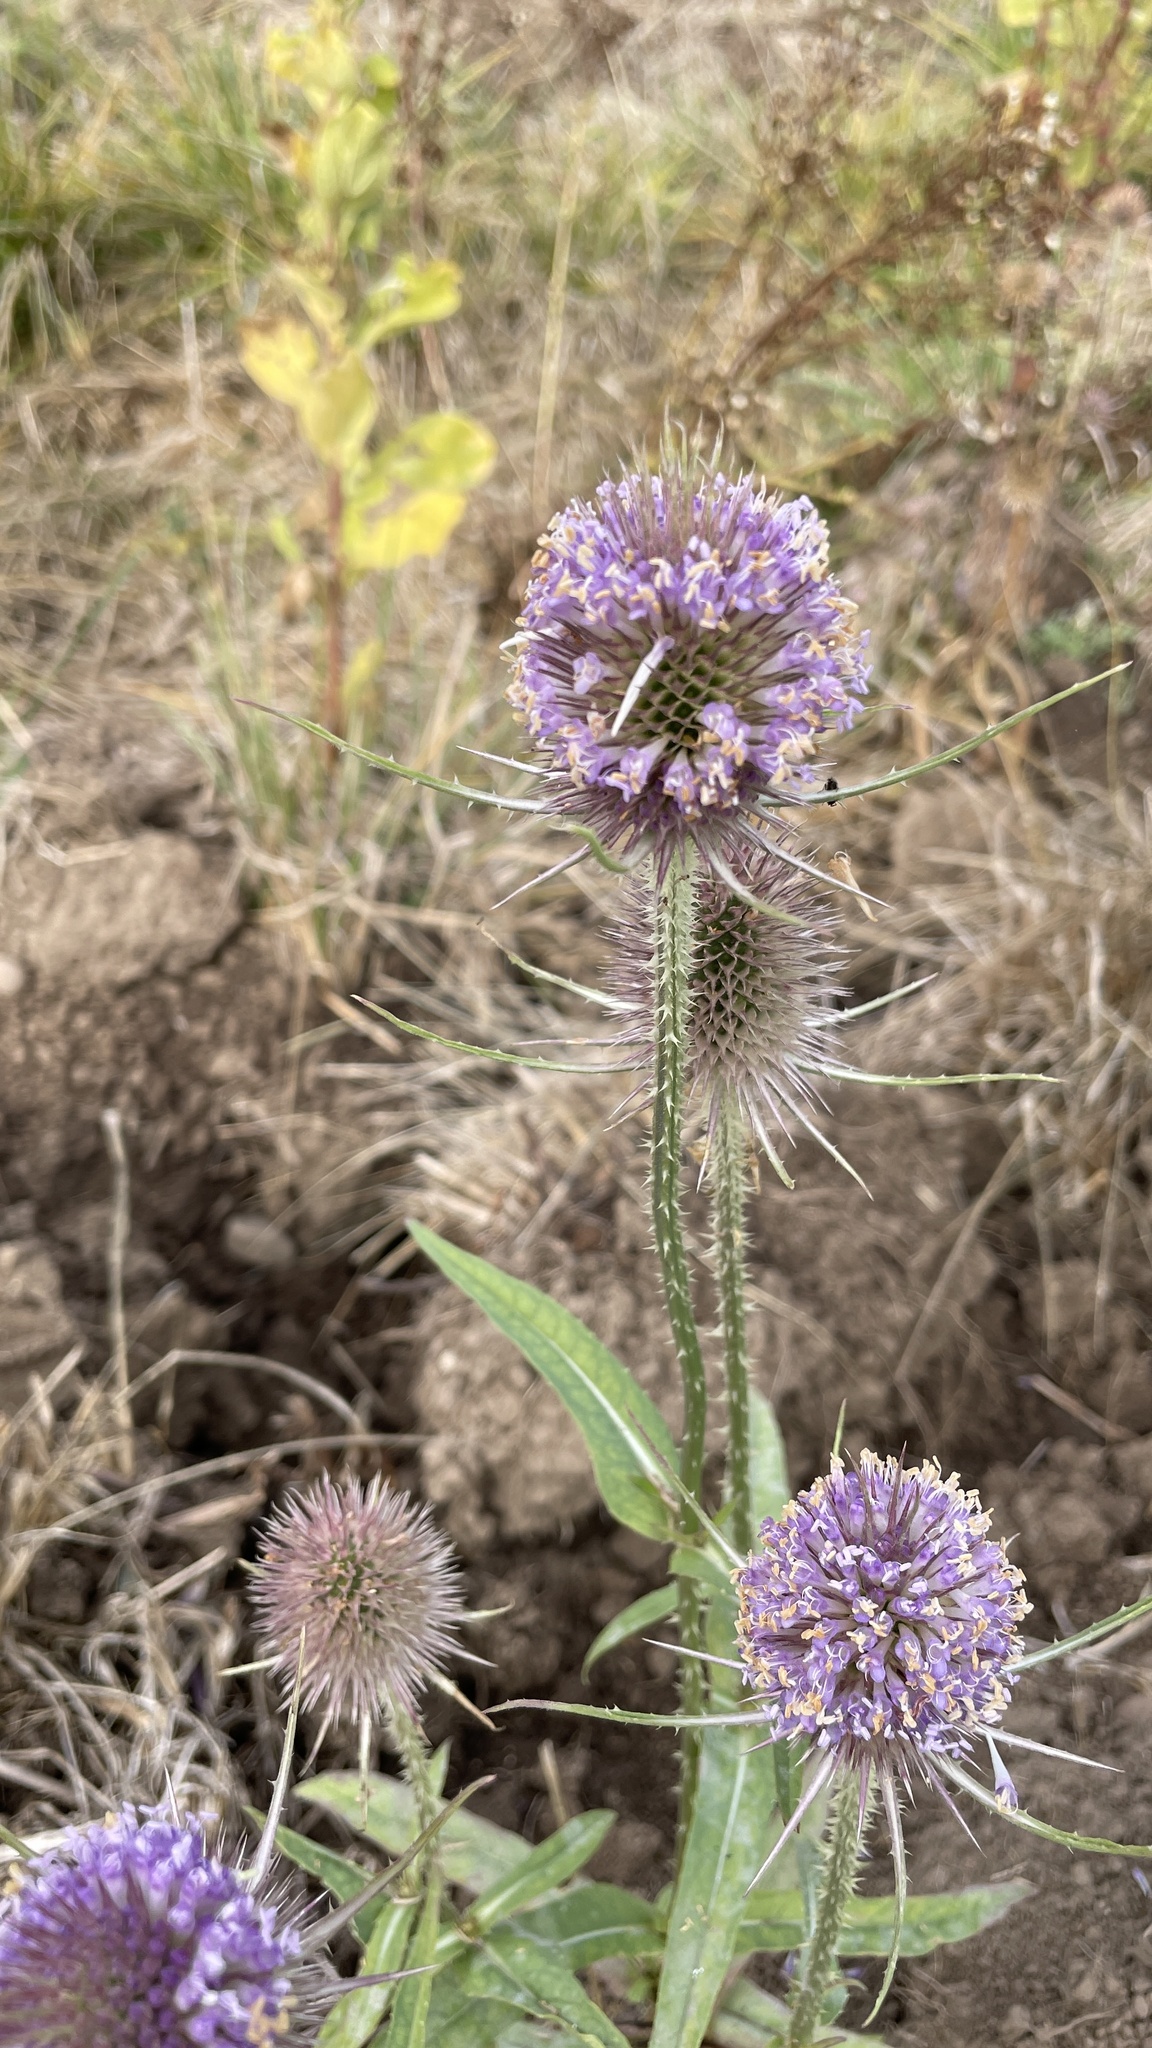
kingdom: Plantae
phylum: Tracheophyta
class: Magnoliopsida
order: Dipsacales
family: Caprifoliaceae
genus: Dipsacus
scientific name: Dipsacus fullonum
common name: Teasel
